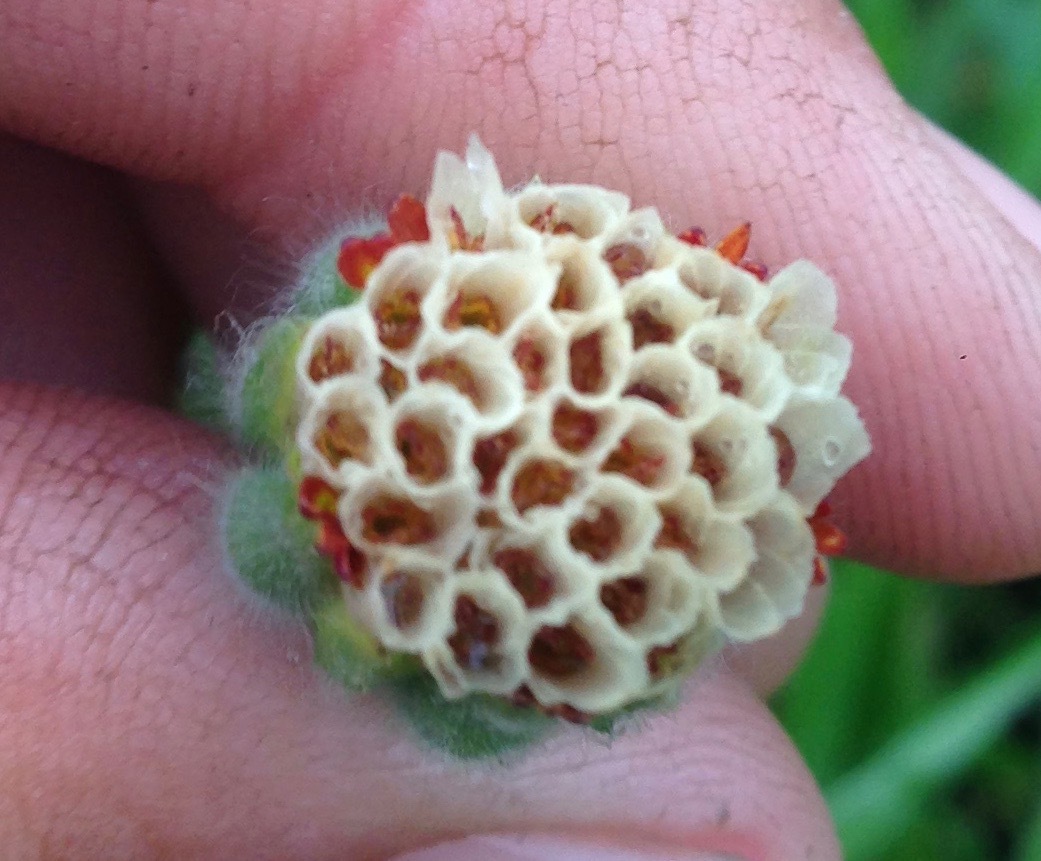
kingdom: Plantae
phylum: Tracheophyta
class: Magnoliopsida
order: Asterales
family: Asteraceae
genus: Achyrachaena
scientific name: Achyrachaena mollis
